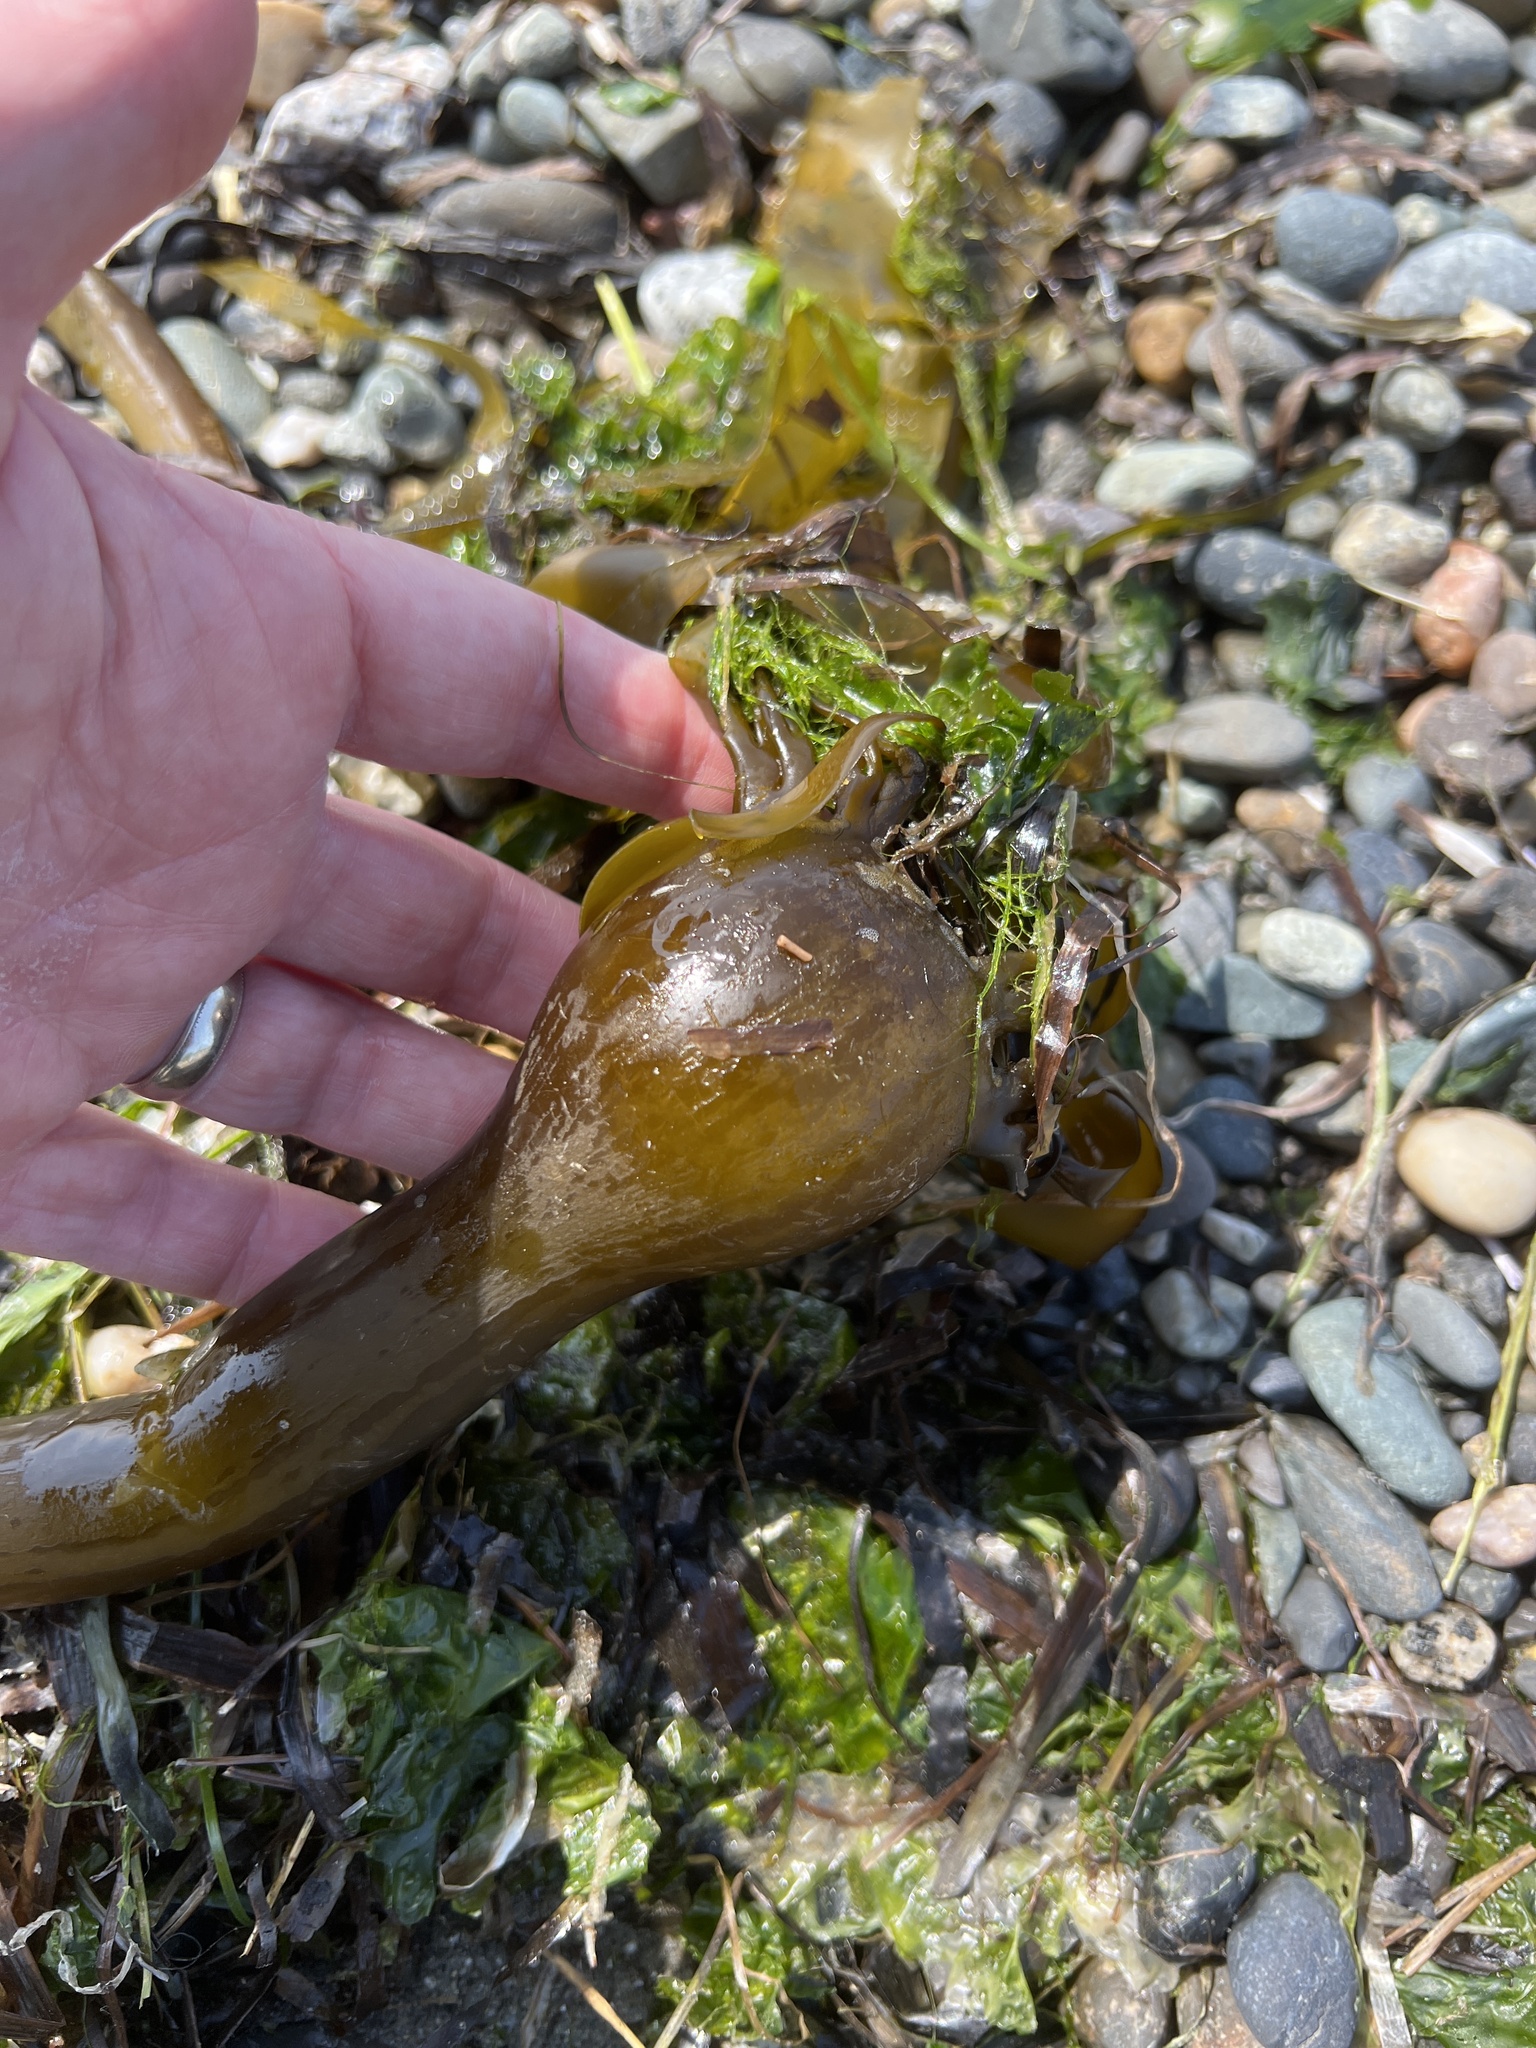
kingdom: Chromista
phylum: Ochrophyta
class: Phaeophyceae
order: Laminariales
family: Laminariaceae
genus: Nereocystis
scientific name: Nereocystis luetkeana
